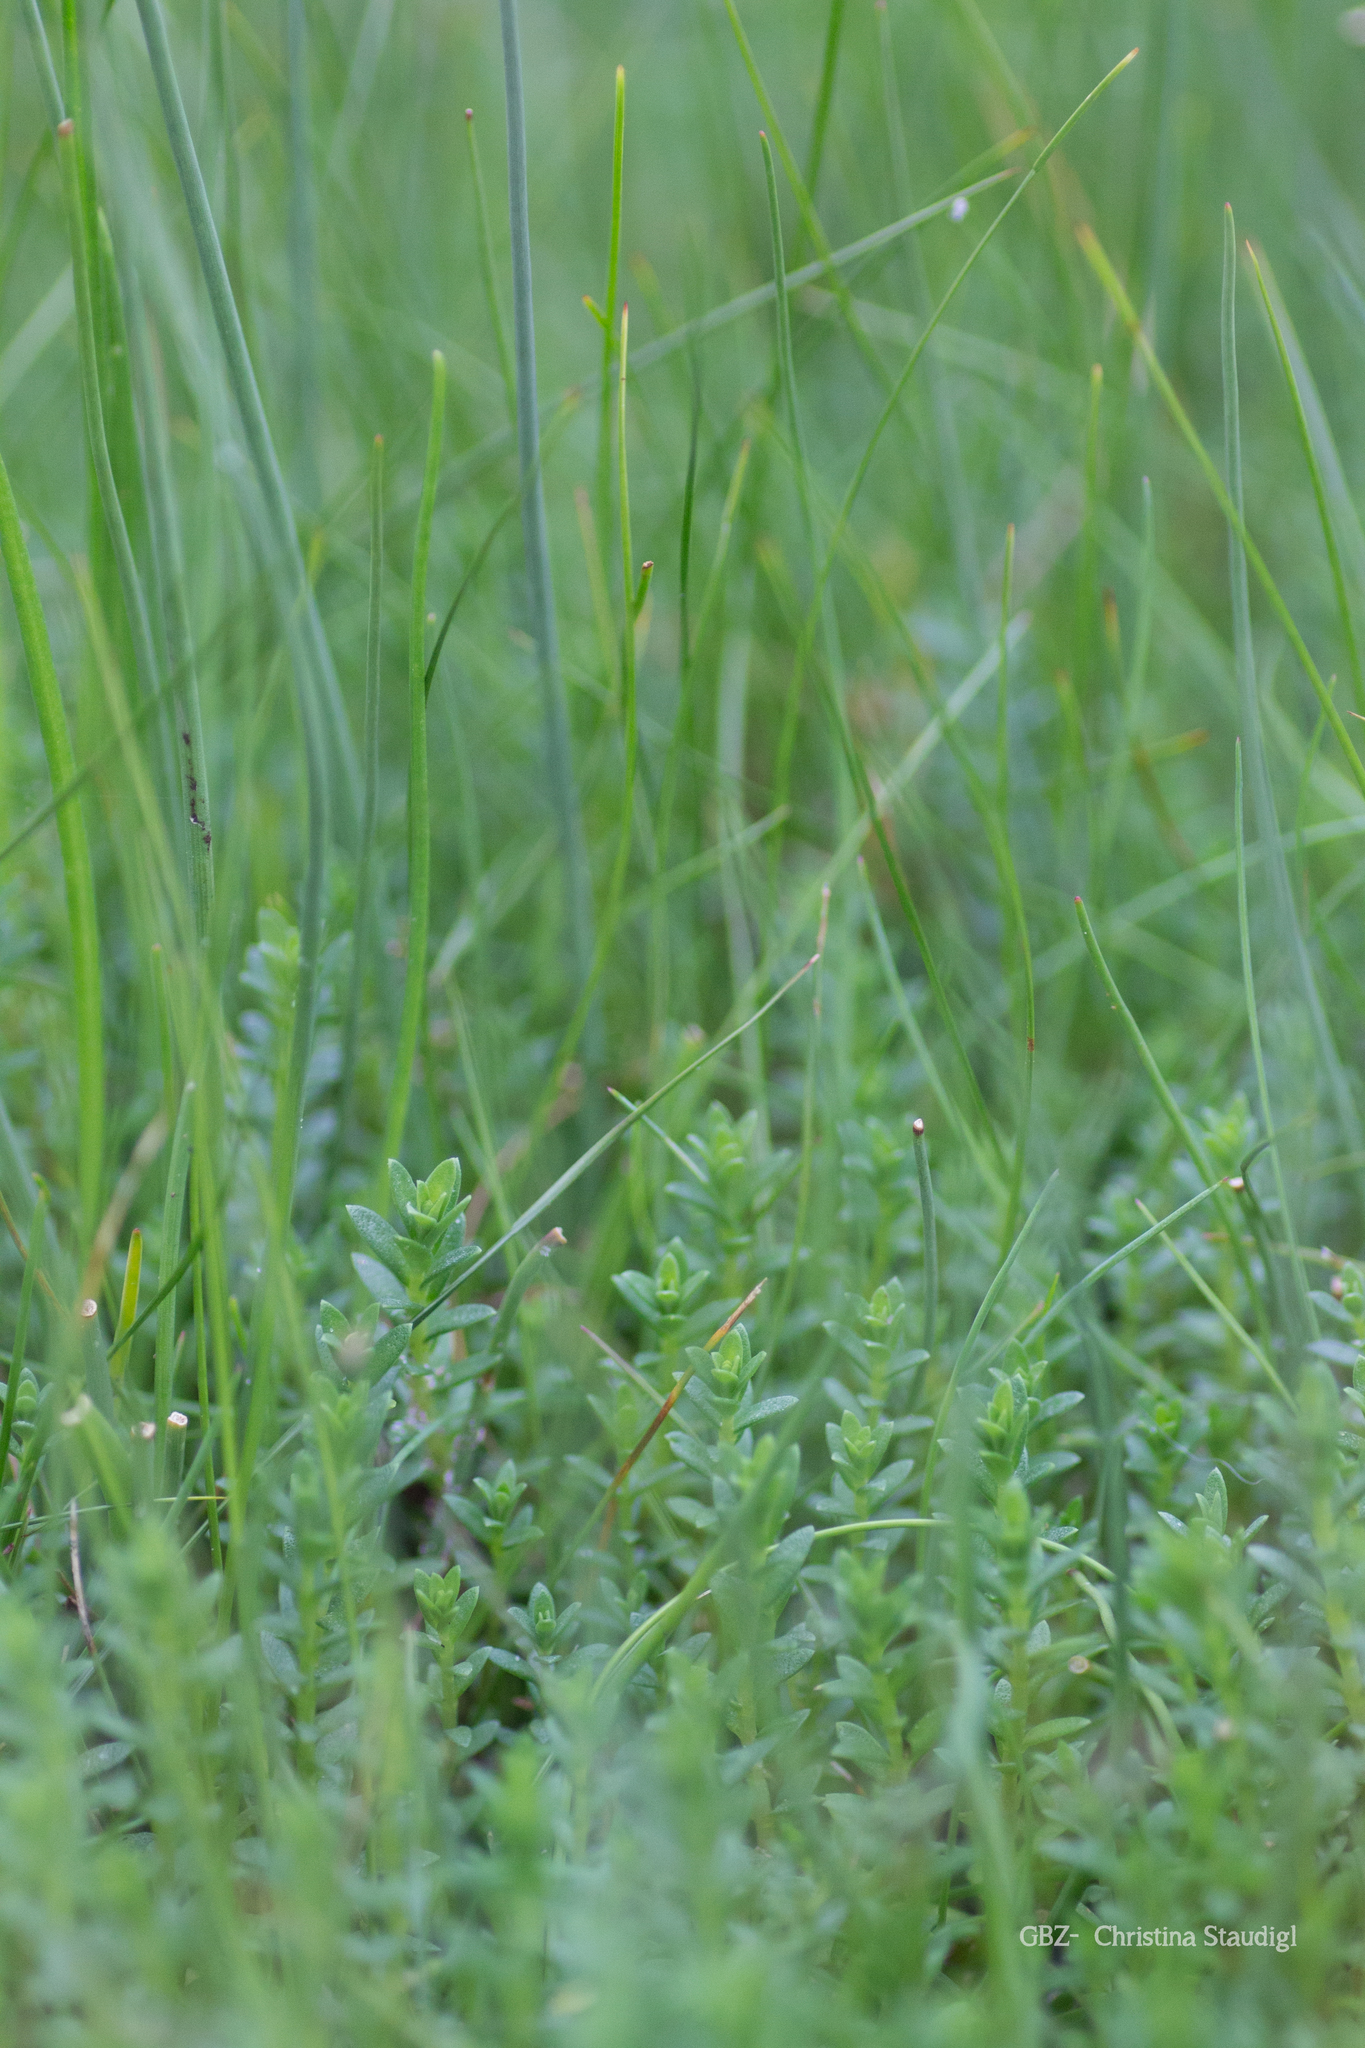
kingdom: Plantae
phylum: Tracheophyta
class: Magnoliopsida
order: Ericales
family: Primulaceae
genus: Lysimachia
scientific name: Lysimachia maritima
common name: Sea milkwort
